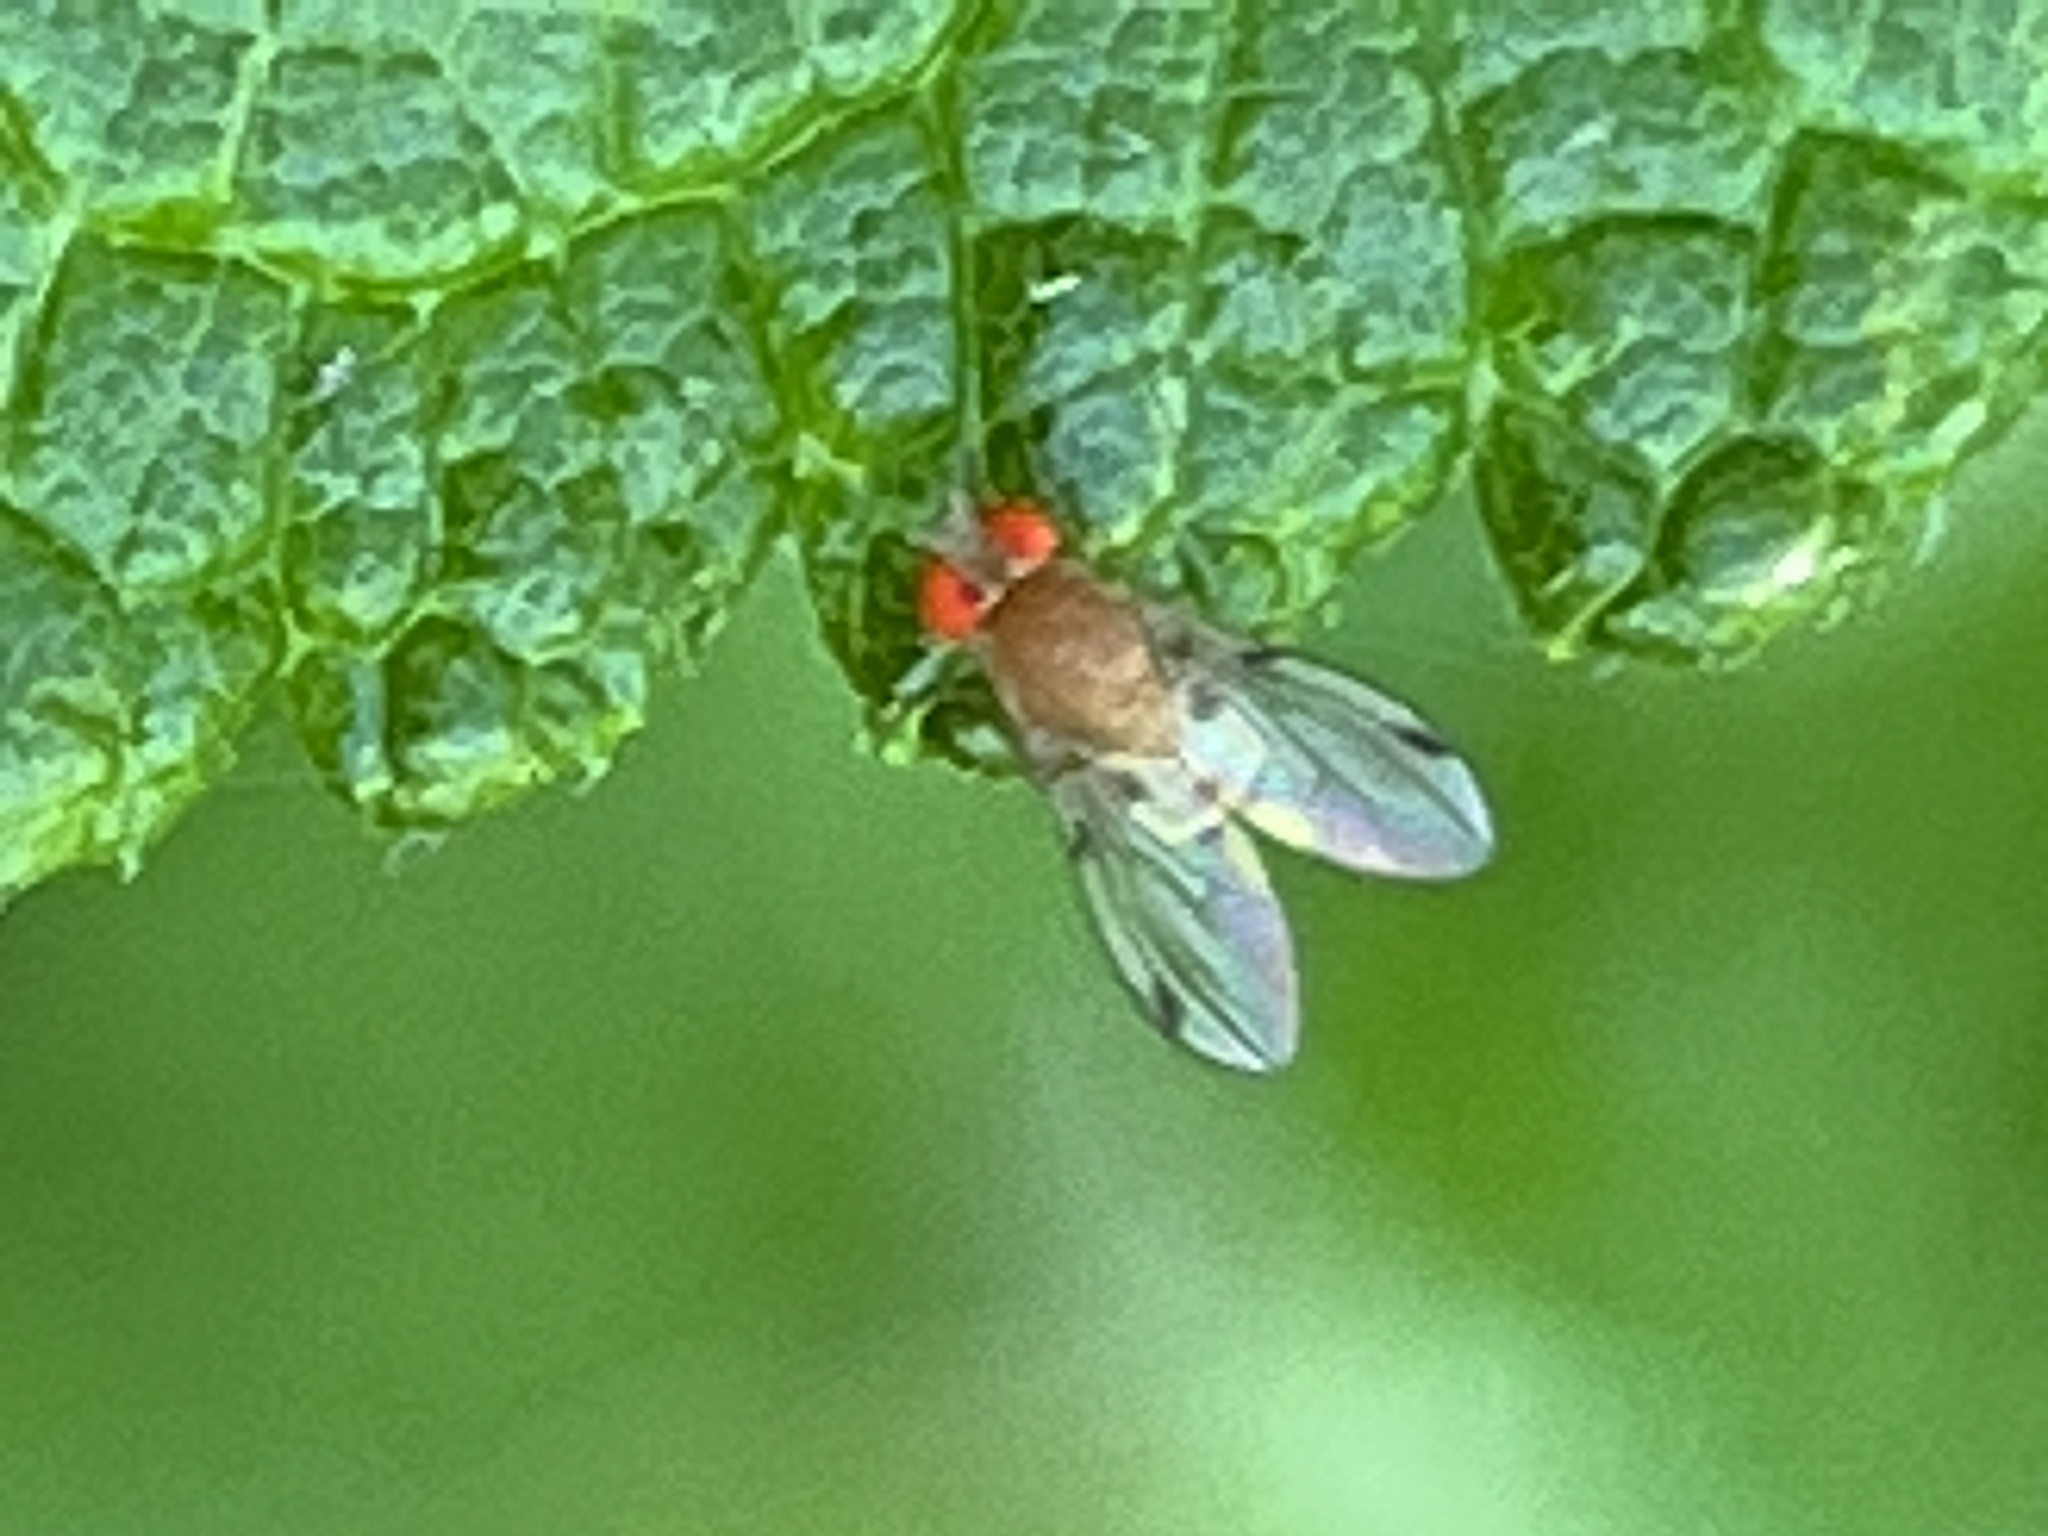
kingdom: Animalia
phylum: Arthropoda
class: Insecta
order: Diptera
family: Drosophilidae
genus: Leucophenga
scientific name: Leucophenga varia
